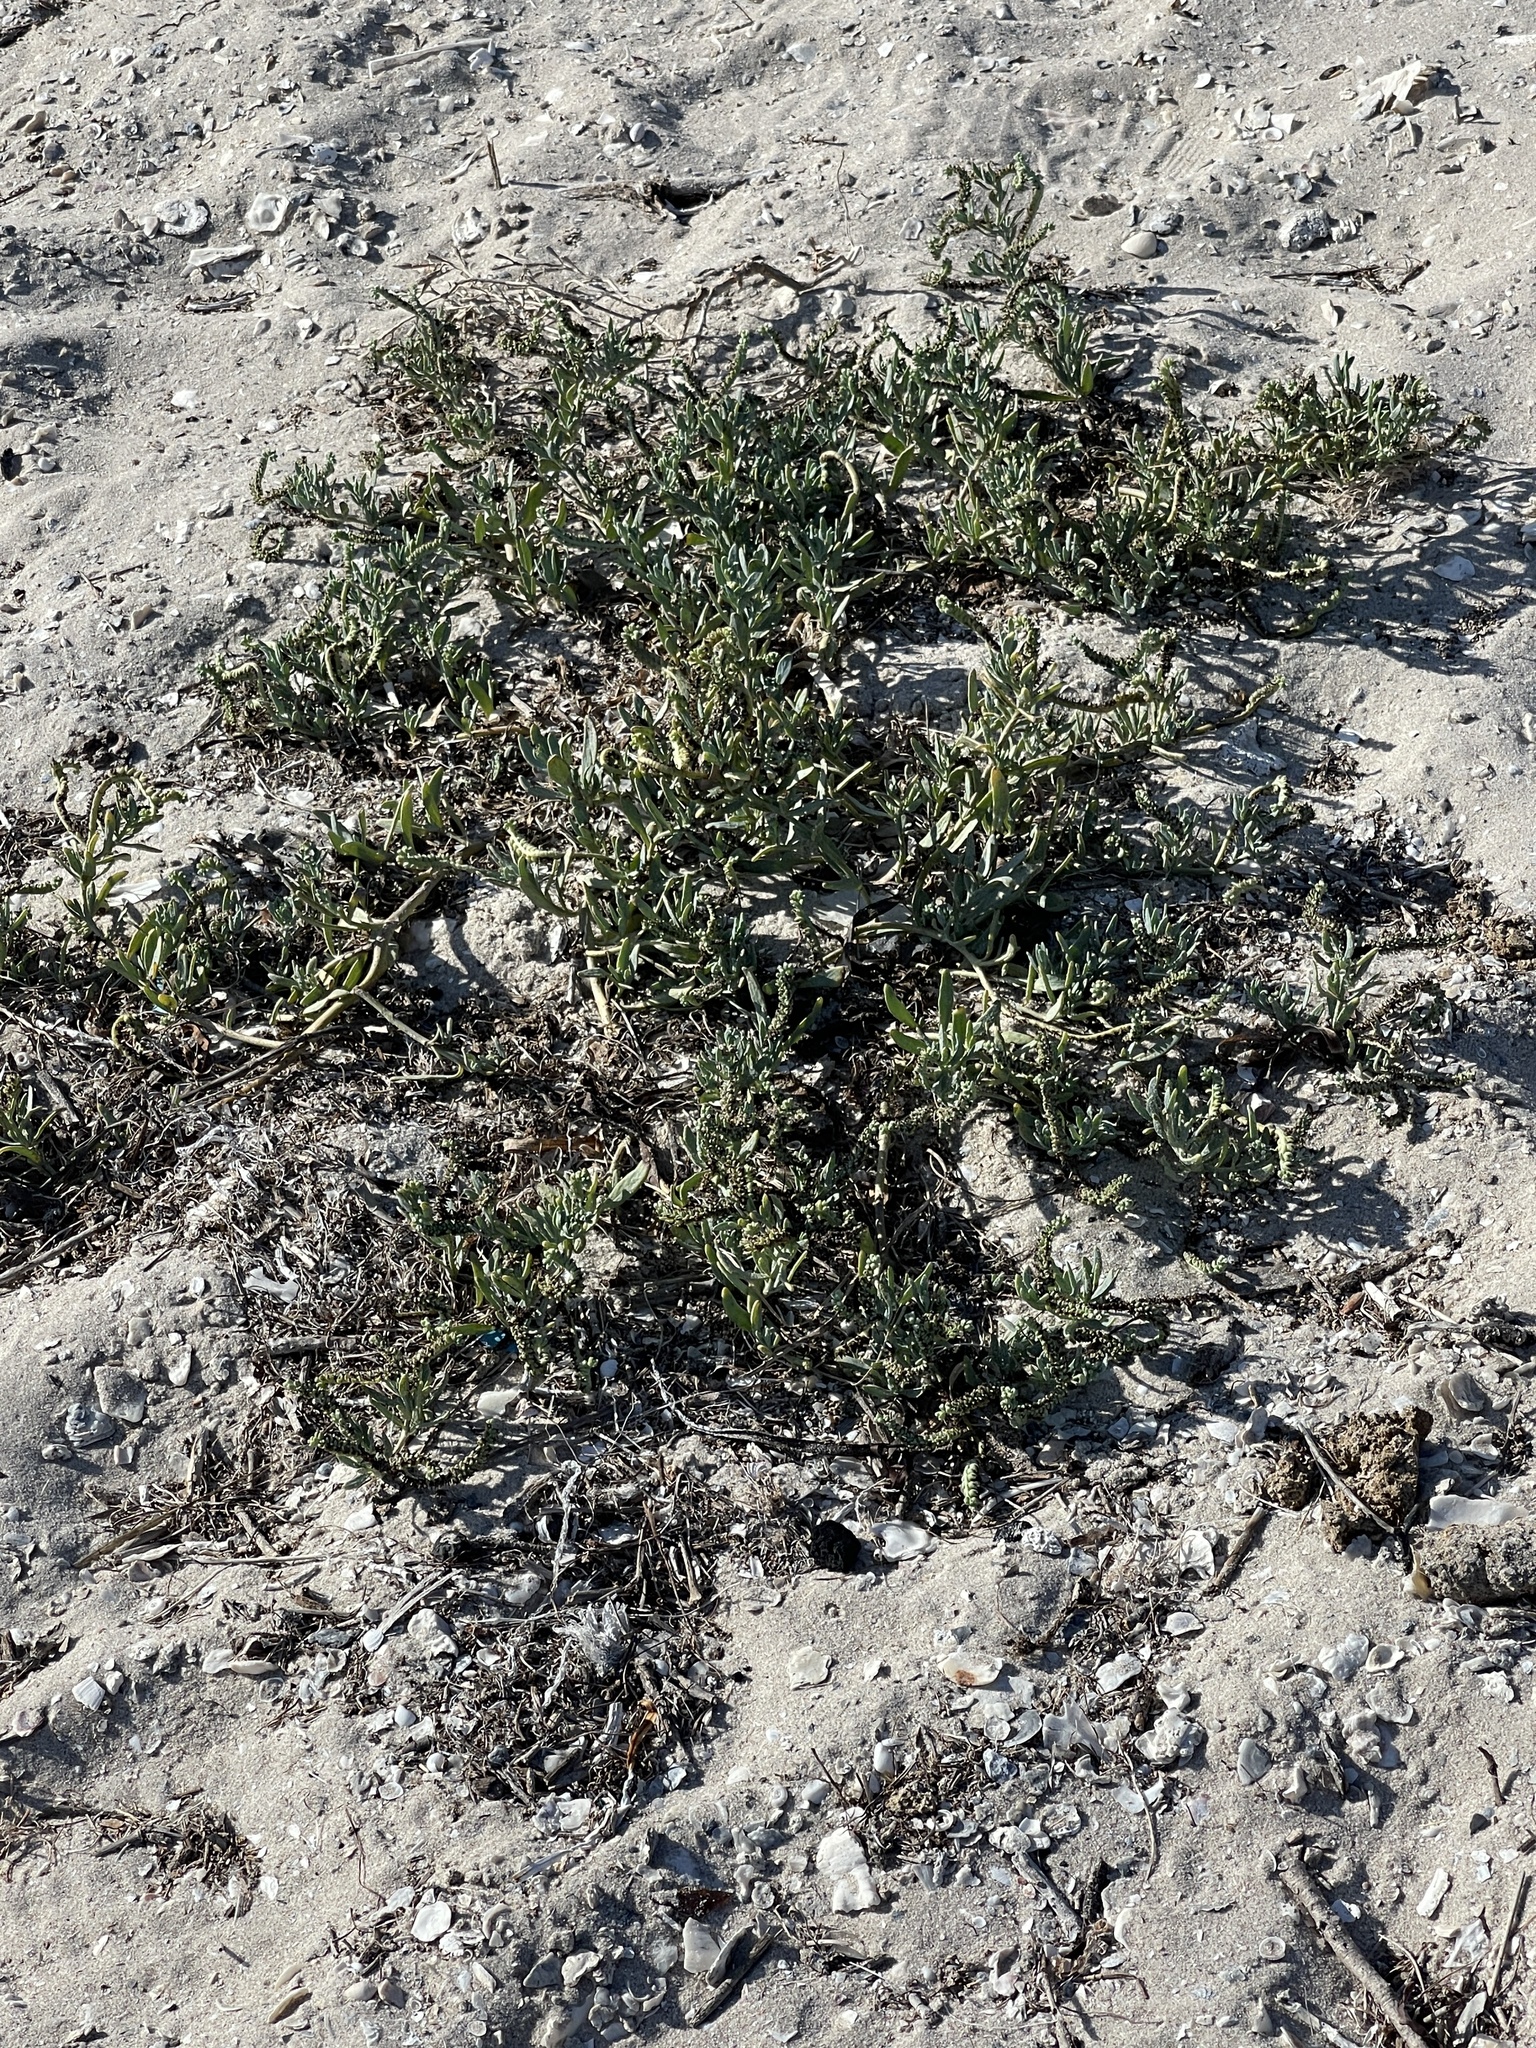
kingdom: Plantae
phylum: Tracheophyta
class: Magnoliopsida
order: Boraginales
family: Heliotropiaceae
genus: Heliotropium
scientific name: Heliotropium curassavicum
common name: Seaside heliotrope
